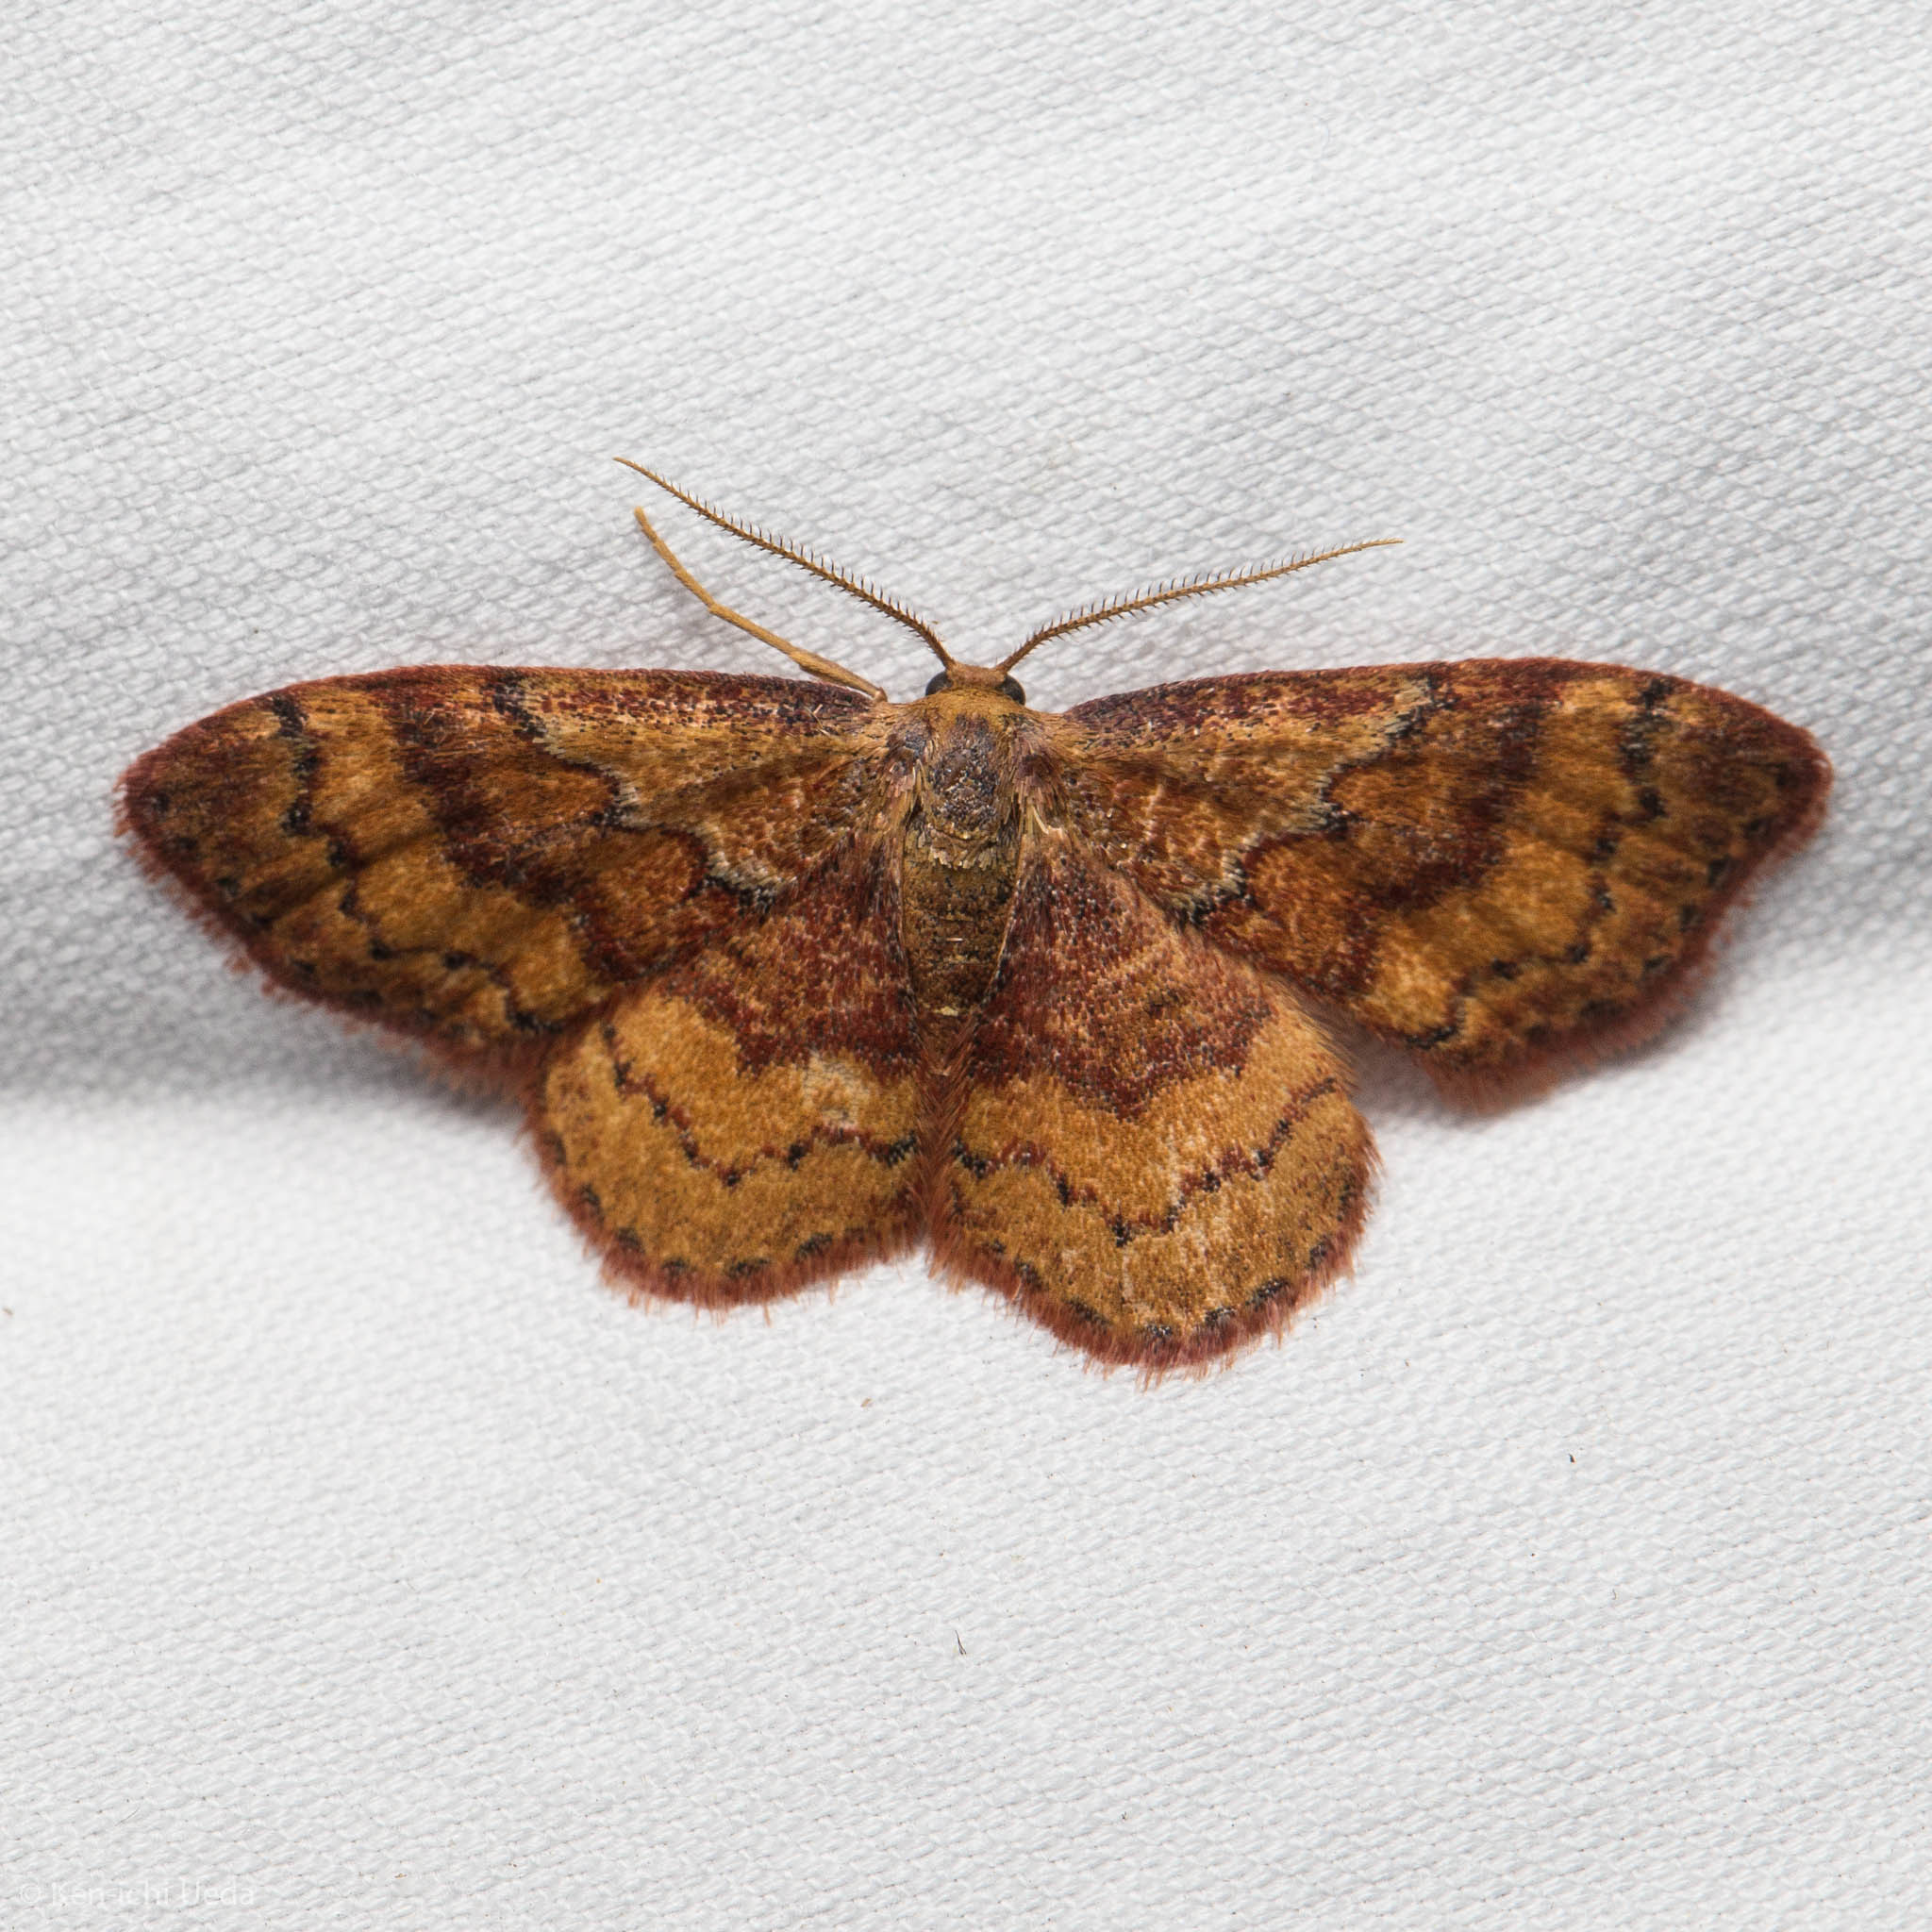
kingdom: Animalia
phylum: Arthropoda
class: Insecta
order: Lepidoptera
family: Geometridae
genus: Leptostales
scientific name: Leptostales rubromarginaria
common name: Dark-ribboned wave
